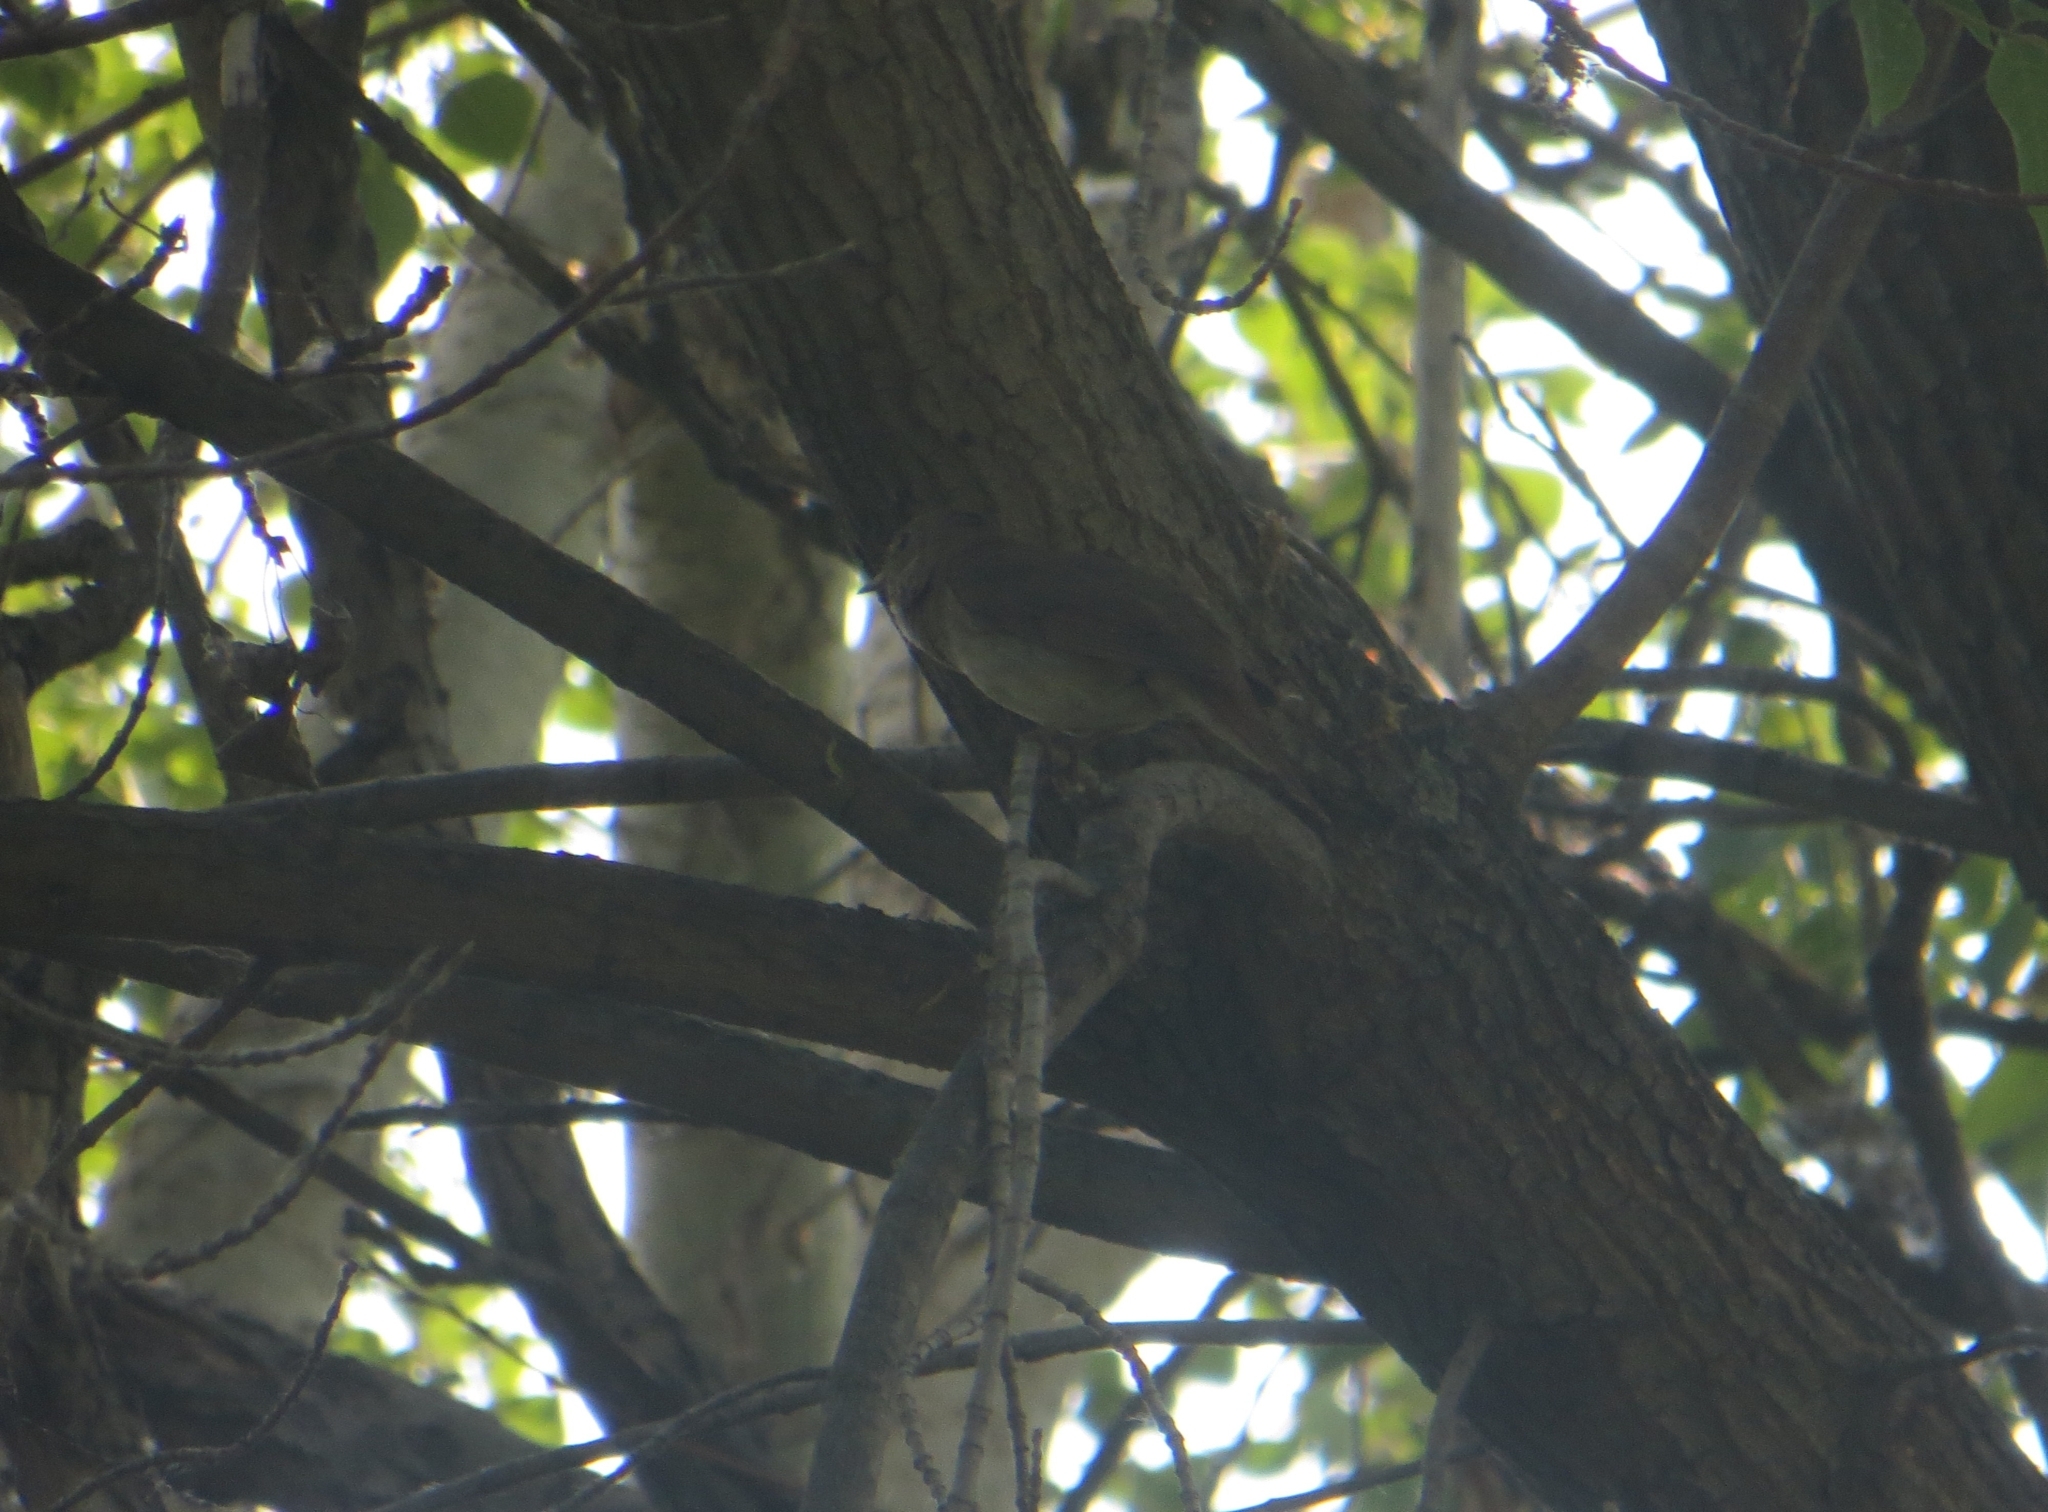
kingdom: Animalia
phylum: Chordata
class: Aves
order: Passeriformes
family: Muscicapidae
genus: Luscinia
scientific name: Luscinia luscinia
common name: Thrush nightingale
